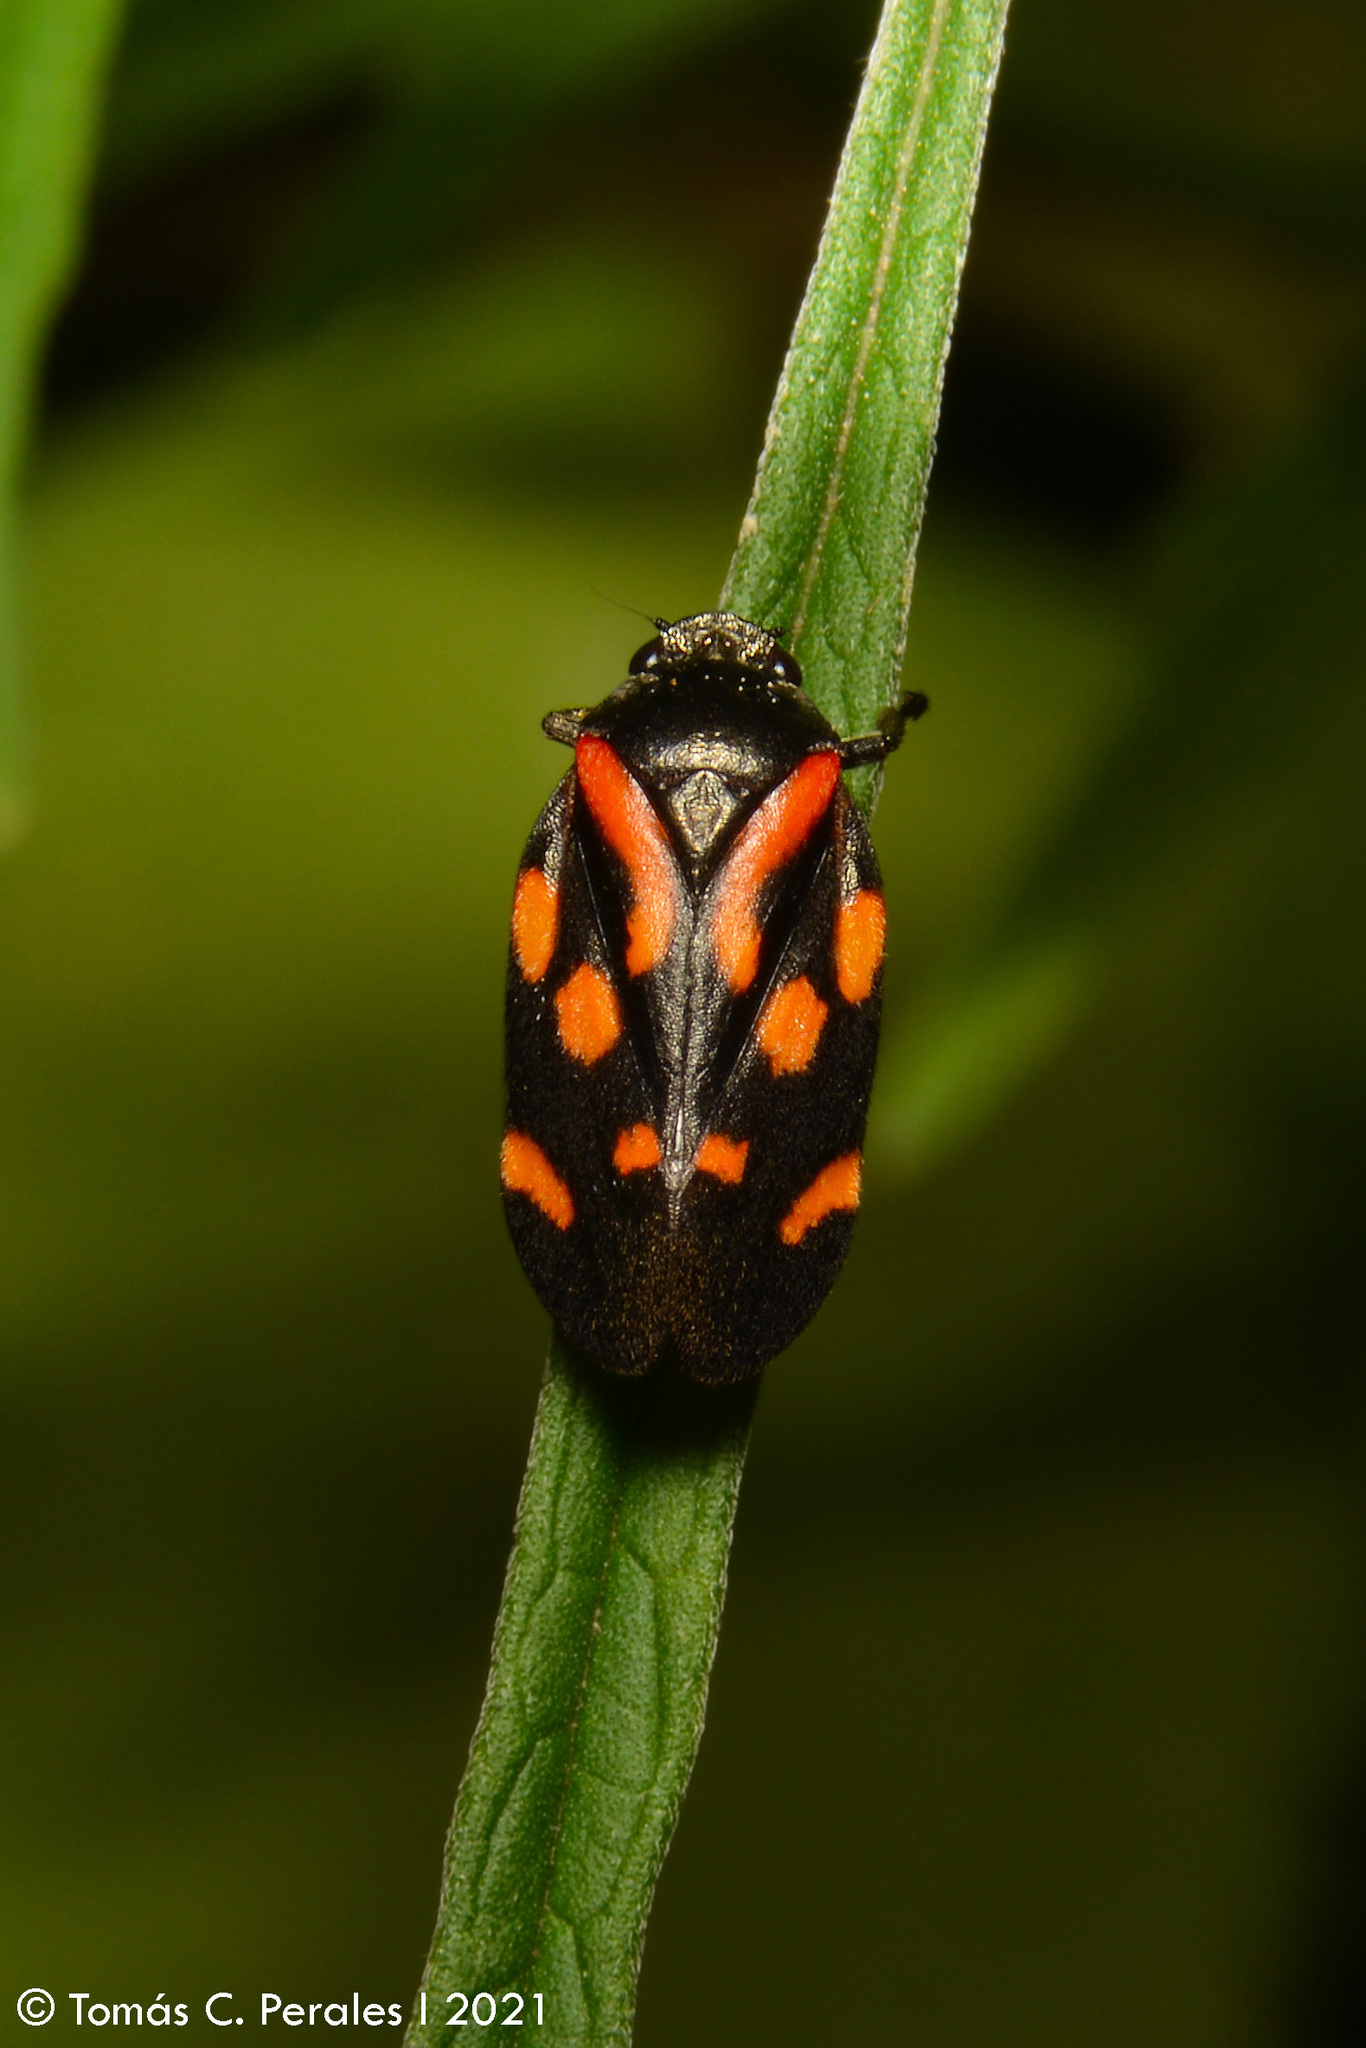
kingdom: Animalia
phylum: Arthropoda
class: Insecta
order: Hemiptera
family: Cercopidae
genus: Isozulia
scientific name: Isozulia christenseni
